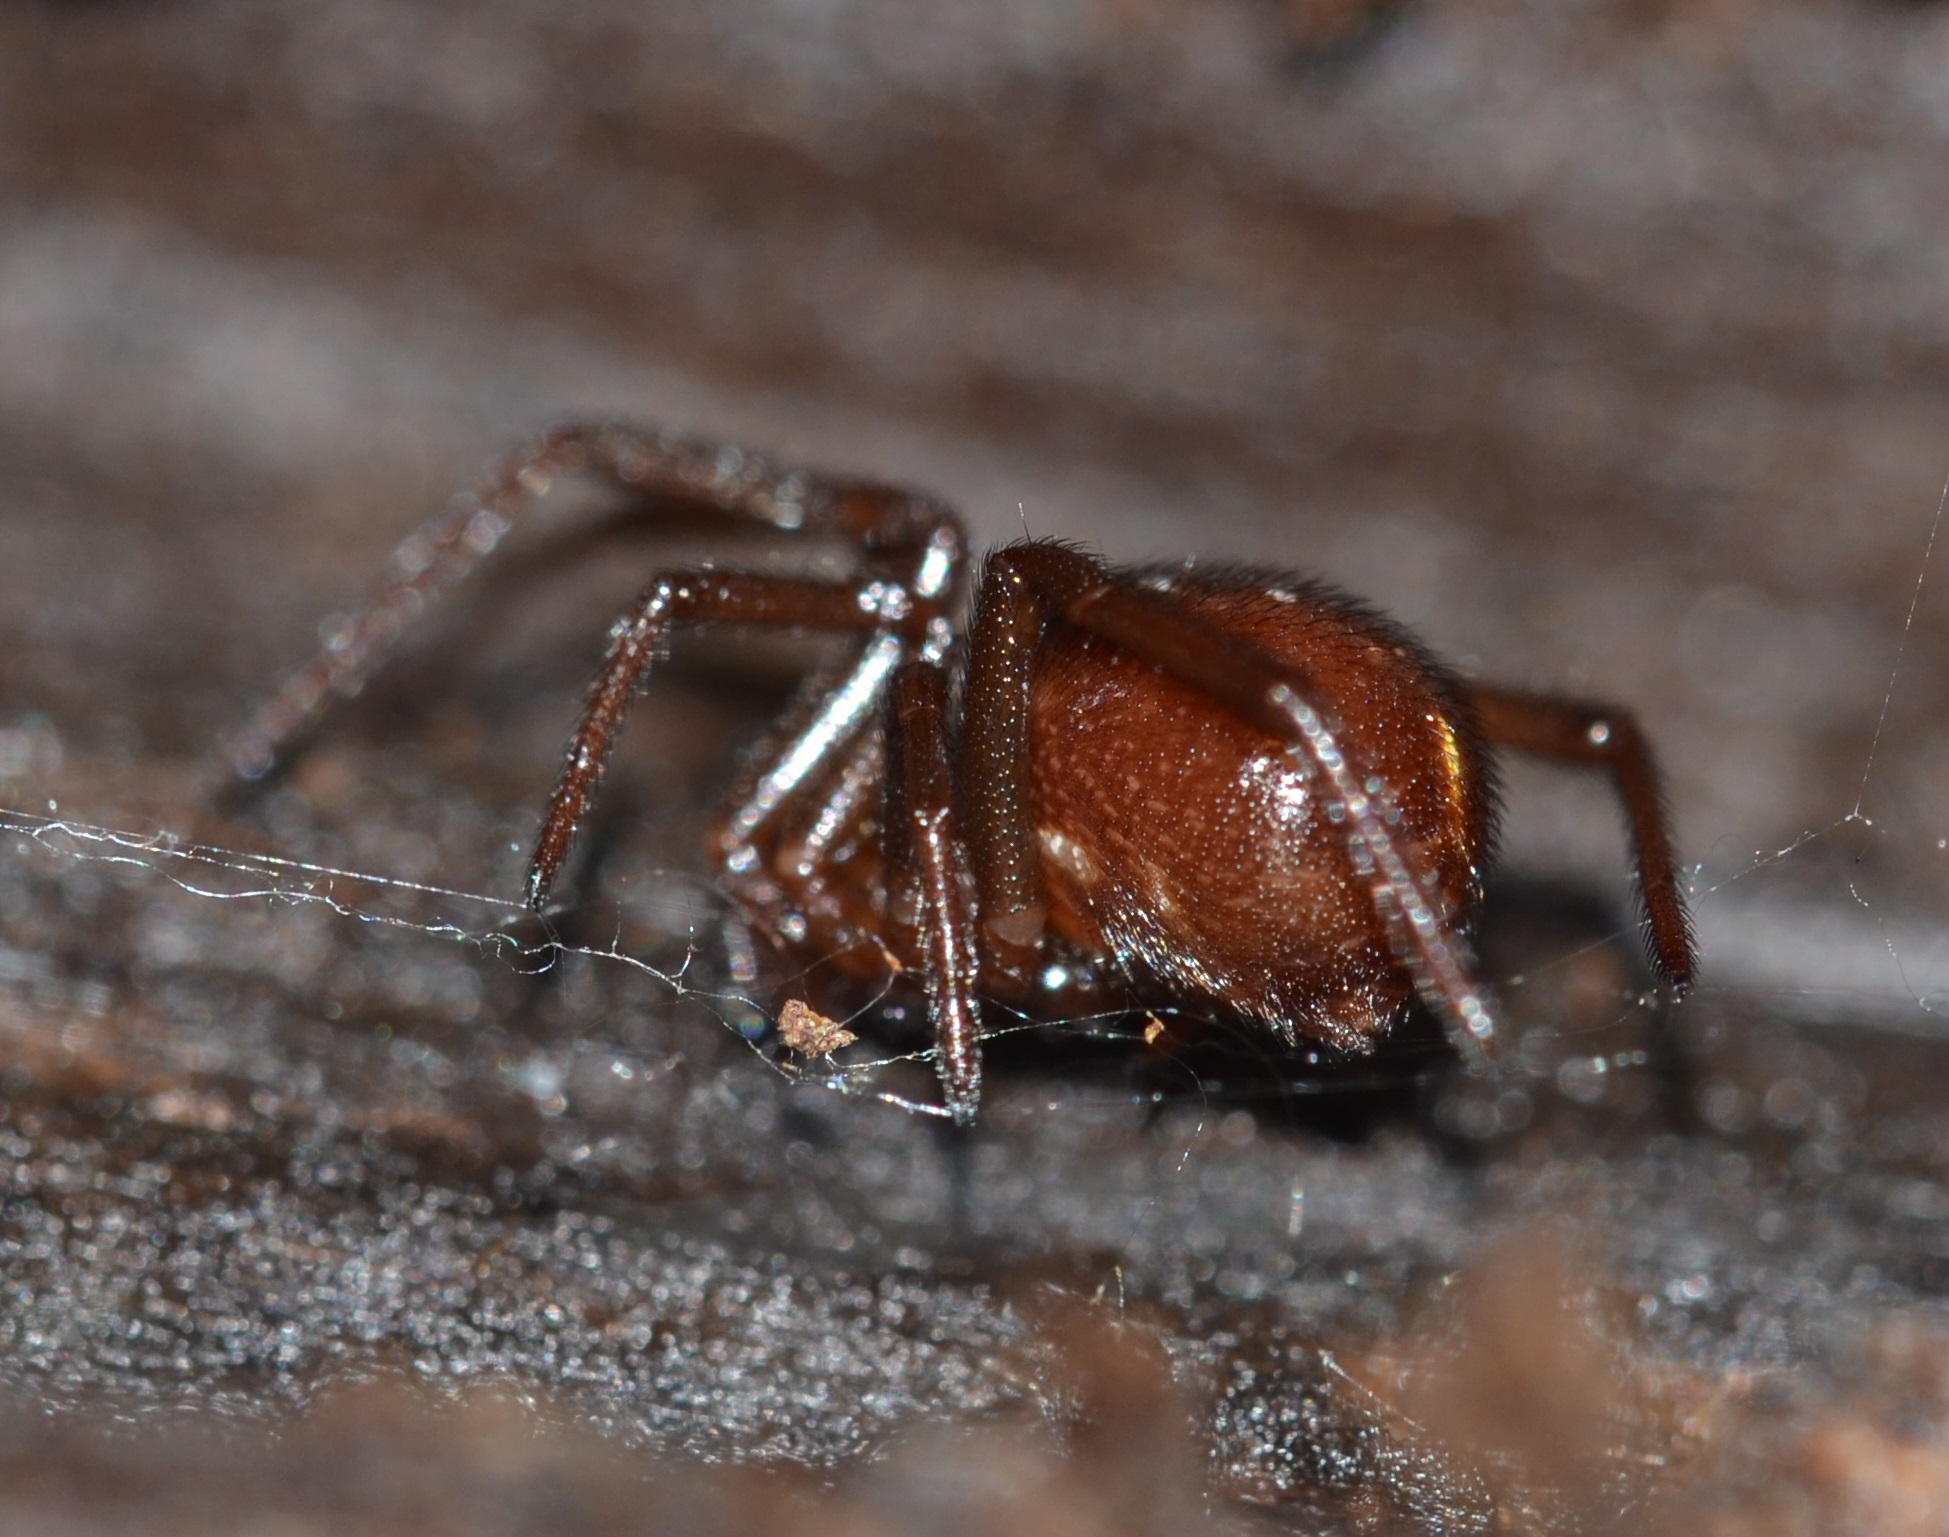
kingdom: Animalia
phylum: Arthropoda
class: Arachnida
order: Araneae
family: Theridiidae
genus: Steatoda
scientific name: Steatoda capensis
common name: Cobweb weaver
